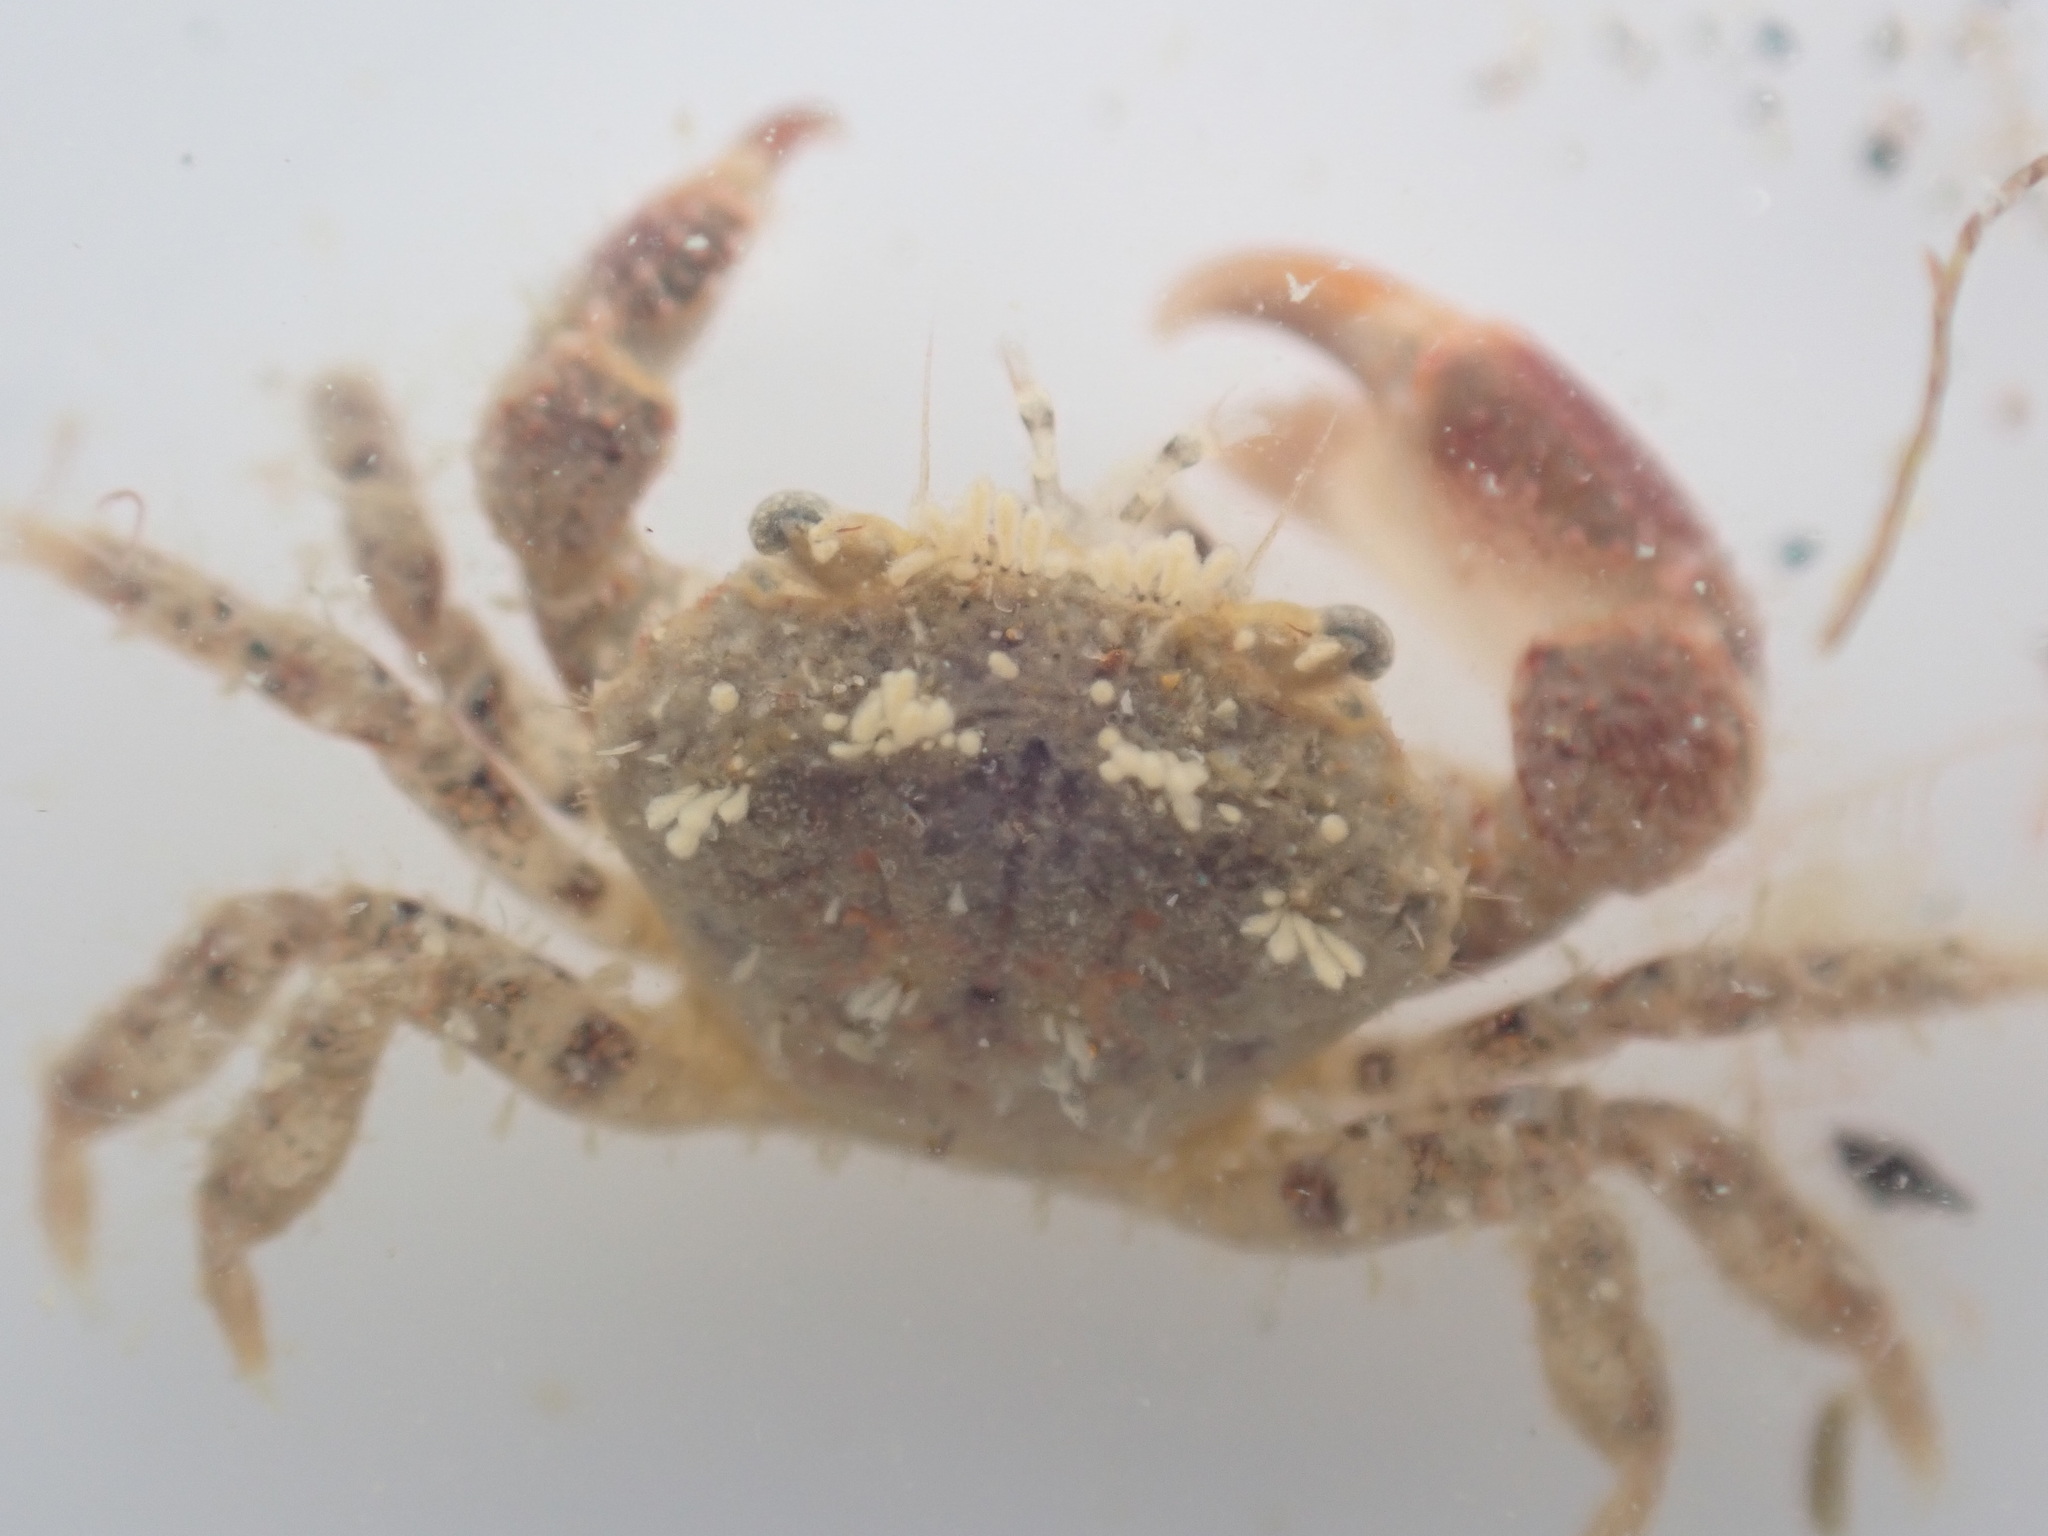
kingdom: Animalia
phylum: Arthropoda
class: Malacostraca
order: Decapoda
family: Pilumnidae
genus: Pilumnus
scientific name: Pilumnus novaezealandiae
